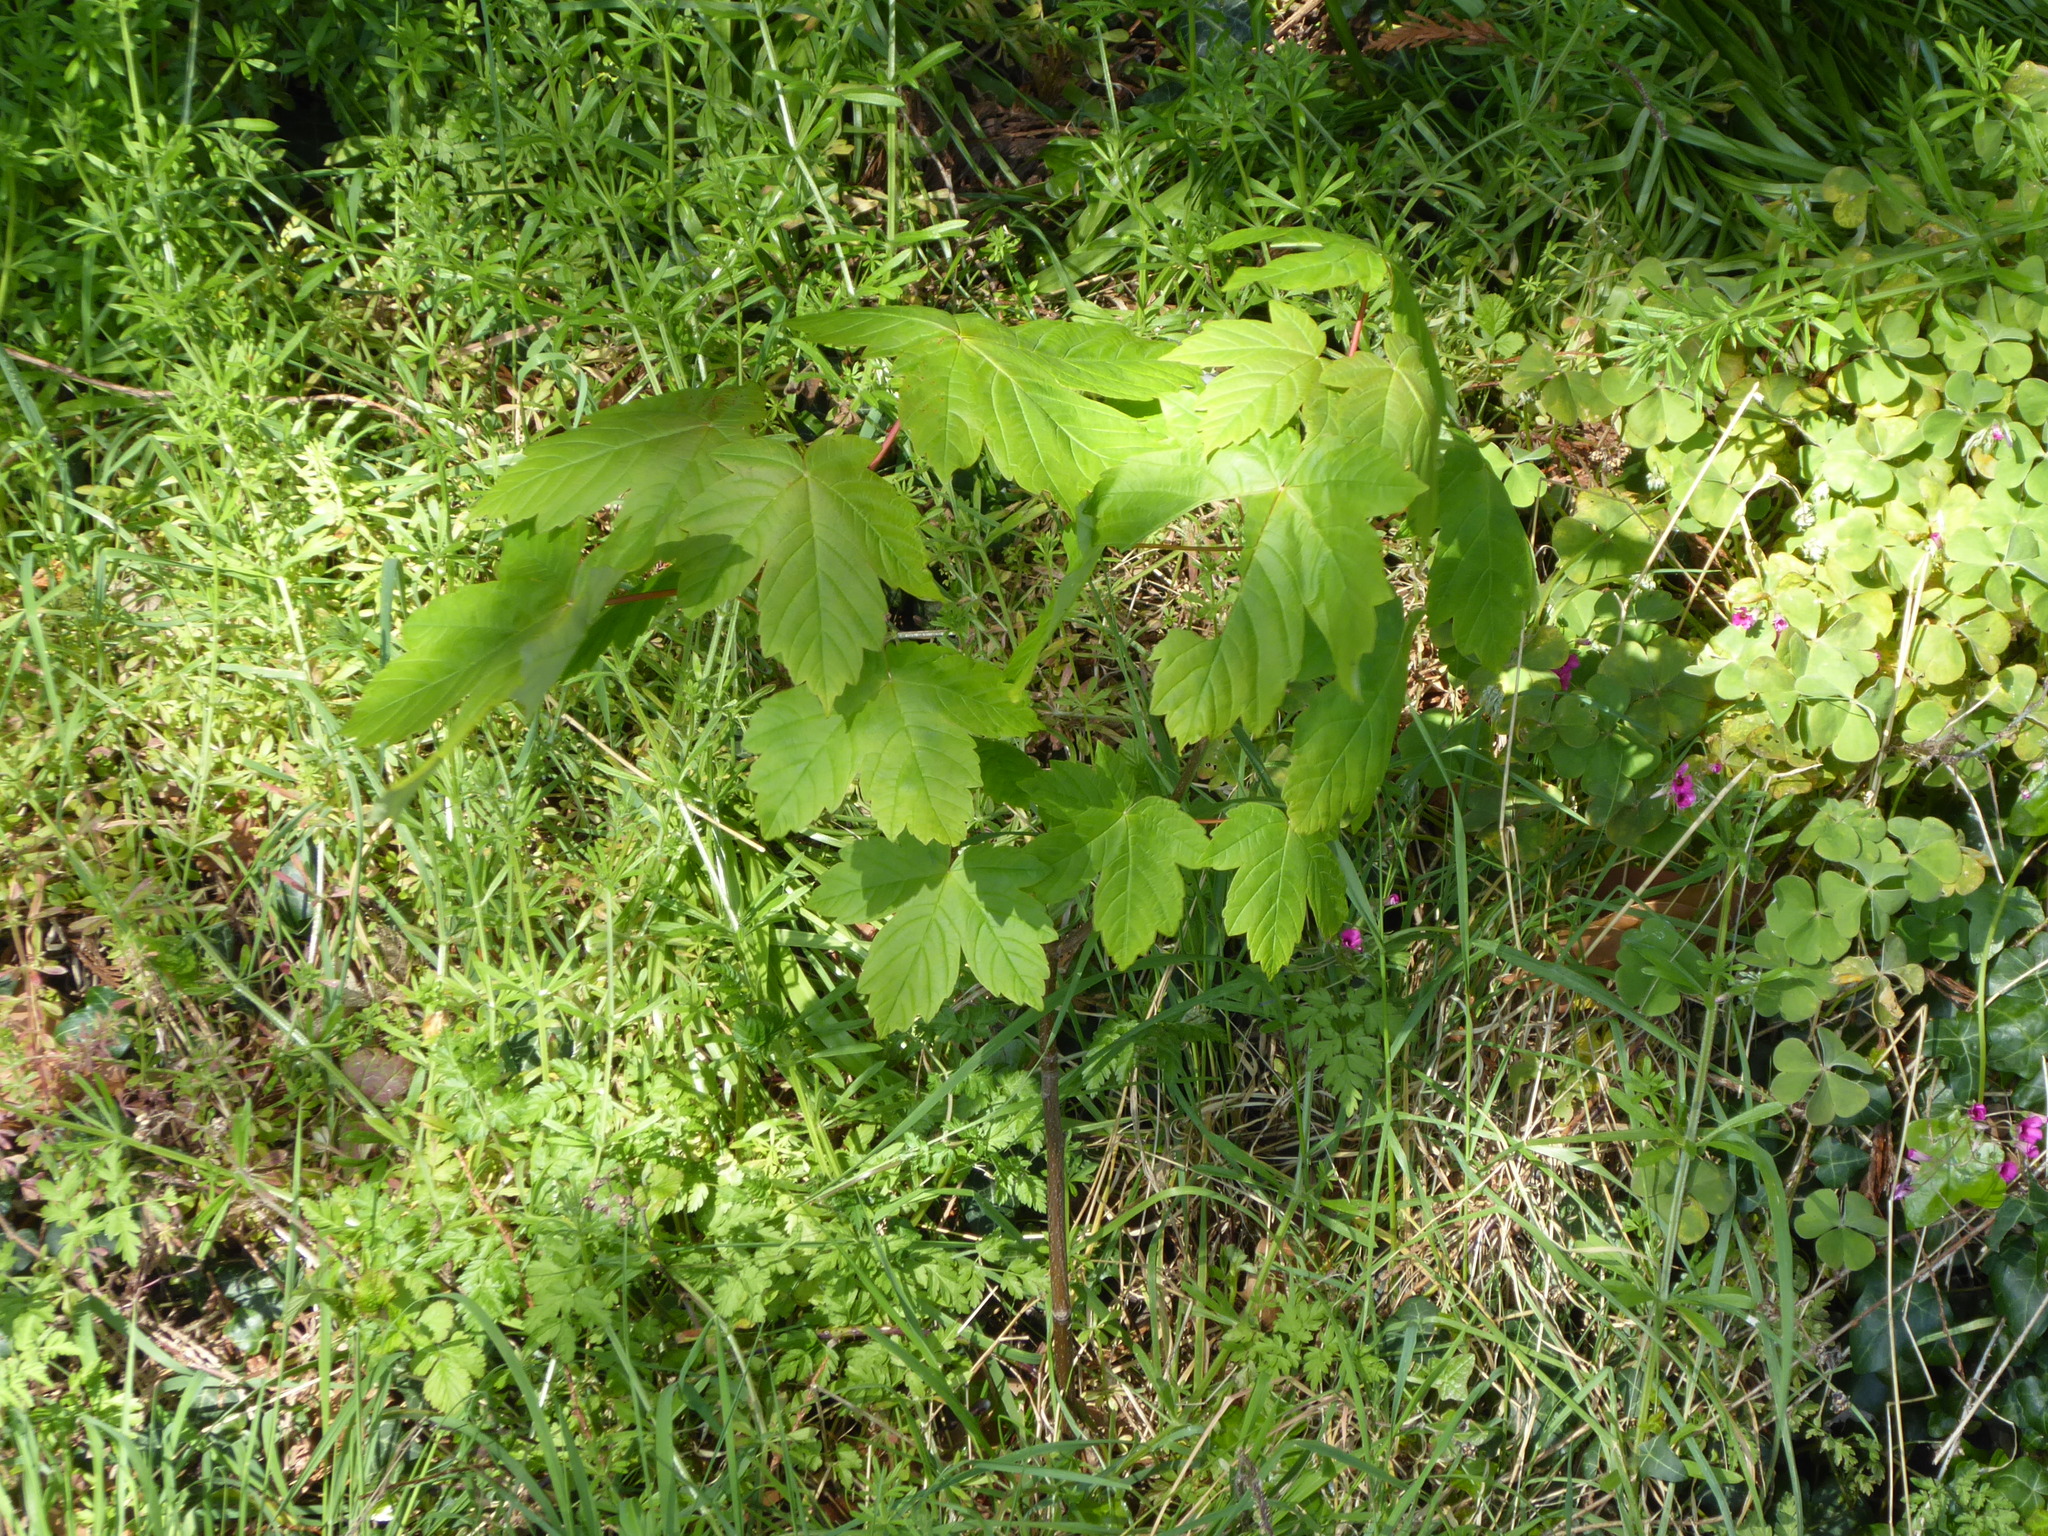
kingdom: Plantae
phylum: Tracheophyta
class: Magnoliopsida
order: Sapindales
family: Sapindaceae
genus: Acer
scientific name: Acer pseudoplatanus
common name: Sycamore
